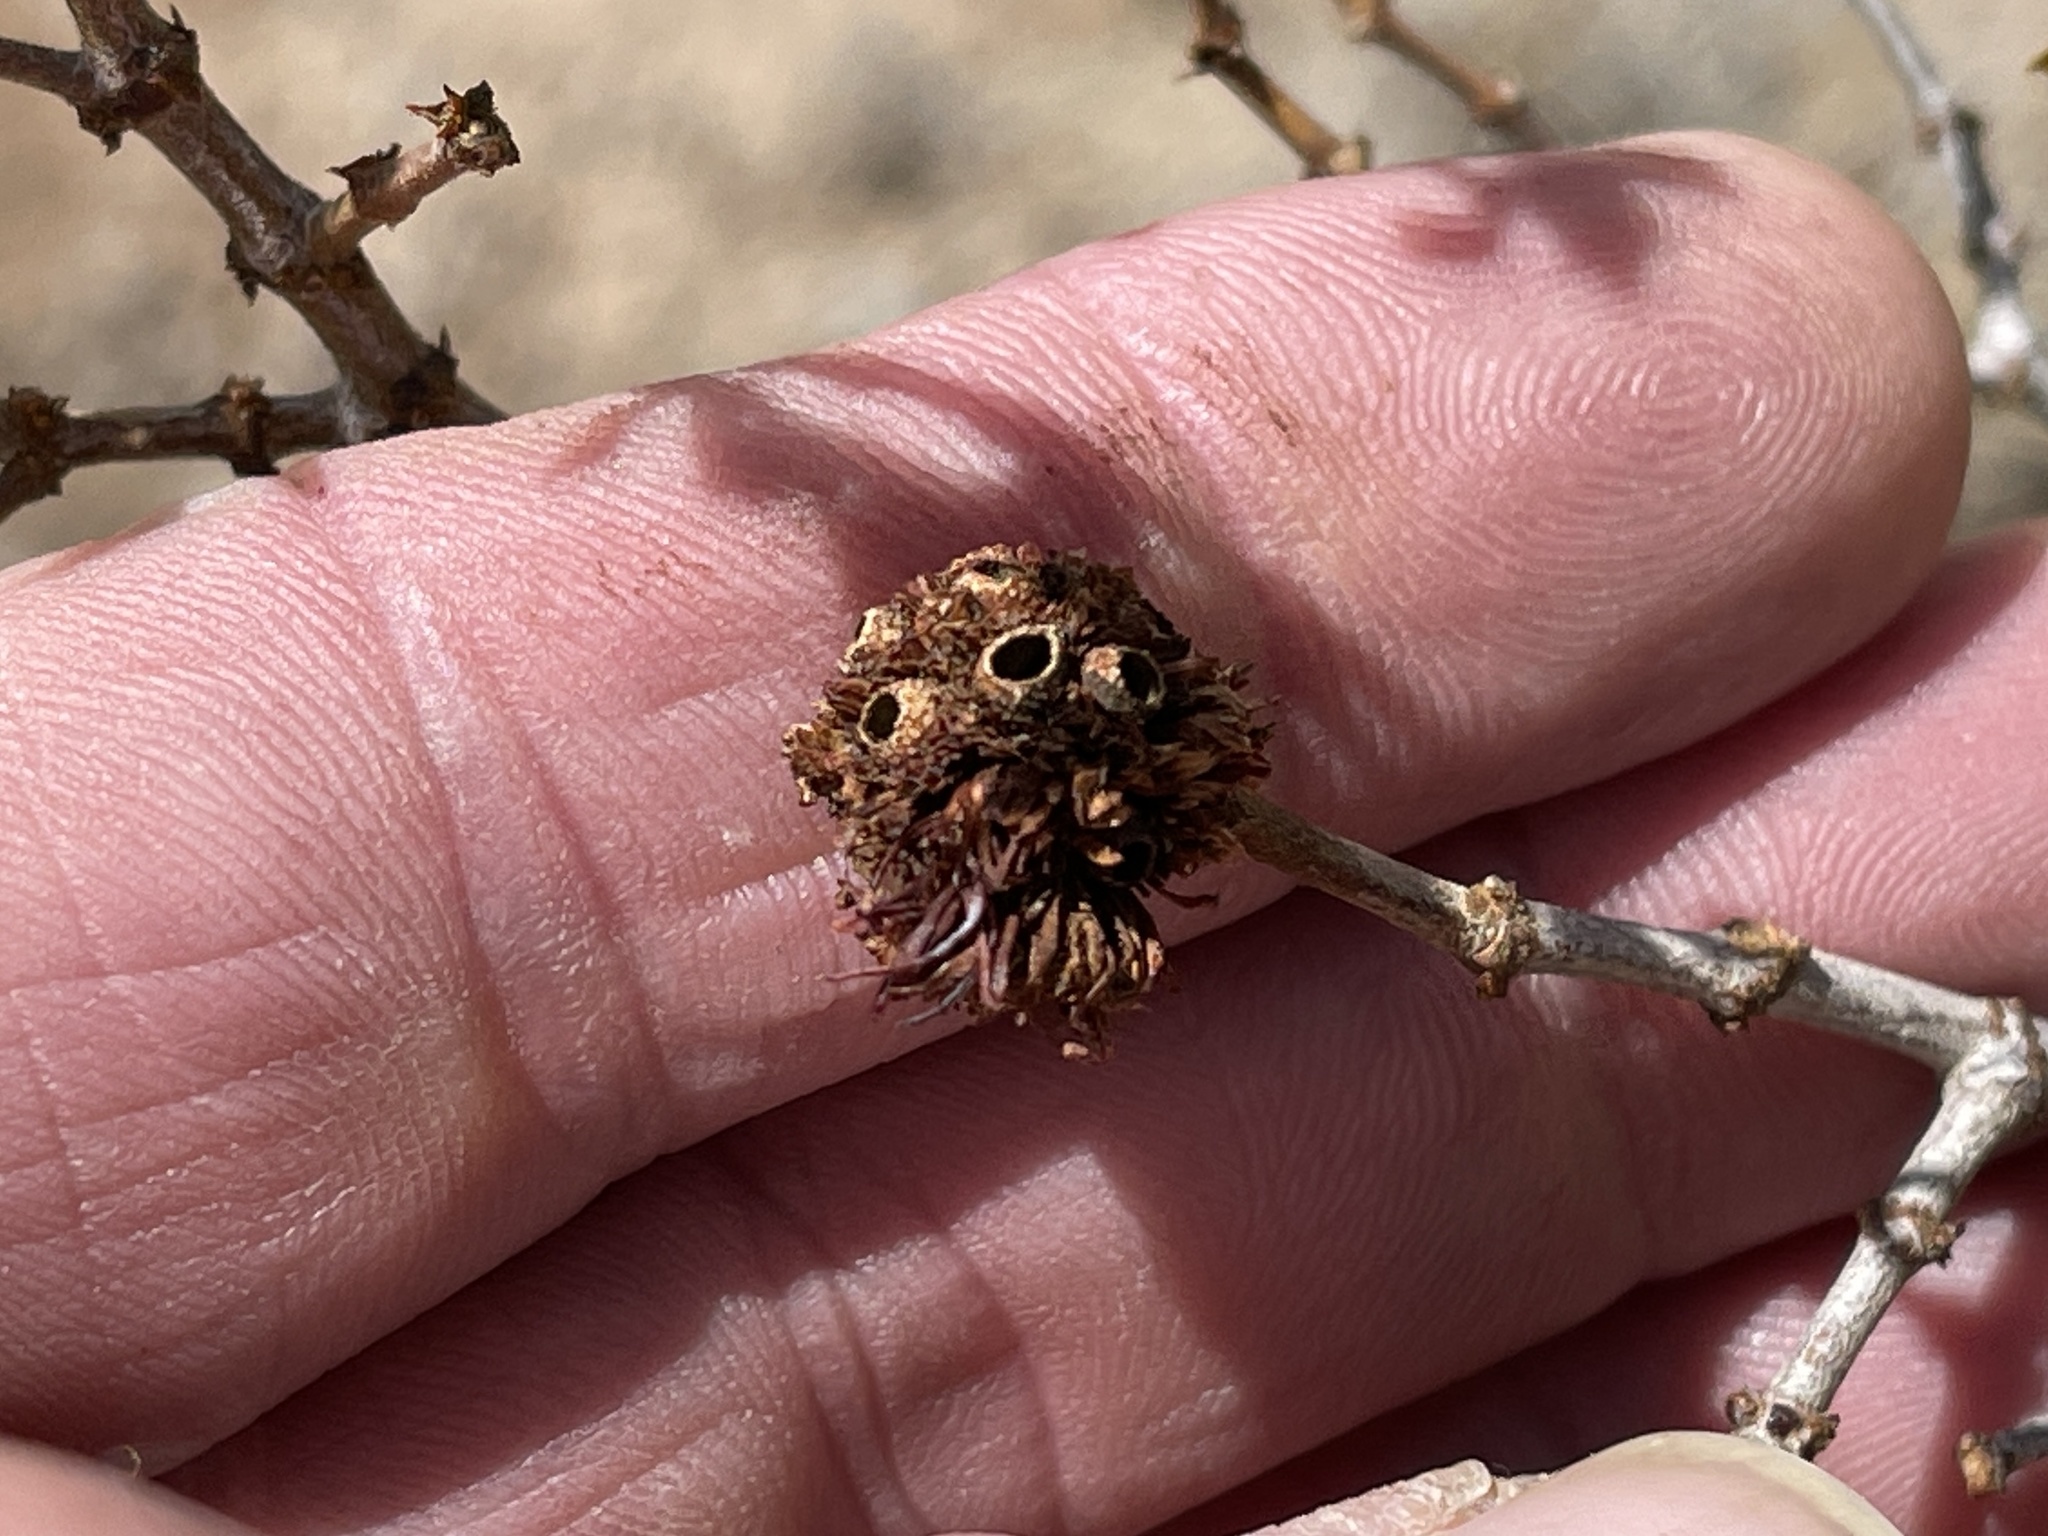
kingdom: Animalia
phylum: Arthropoda
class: Insecta
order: Diptera
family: Cecidomyiidae
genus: Asphondylia
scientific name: Asphondylia auripila
